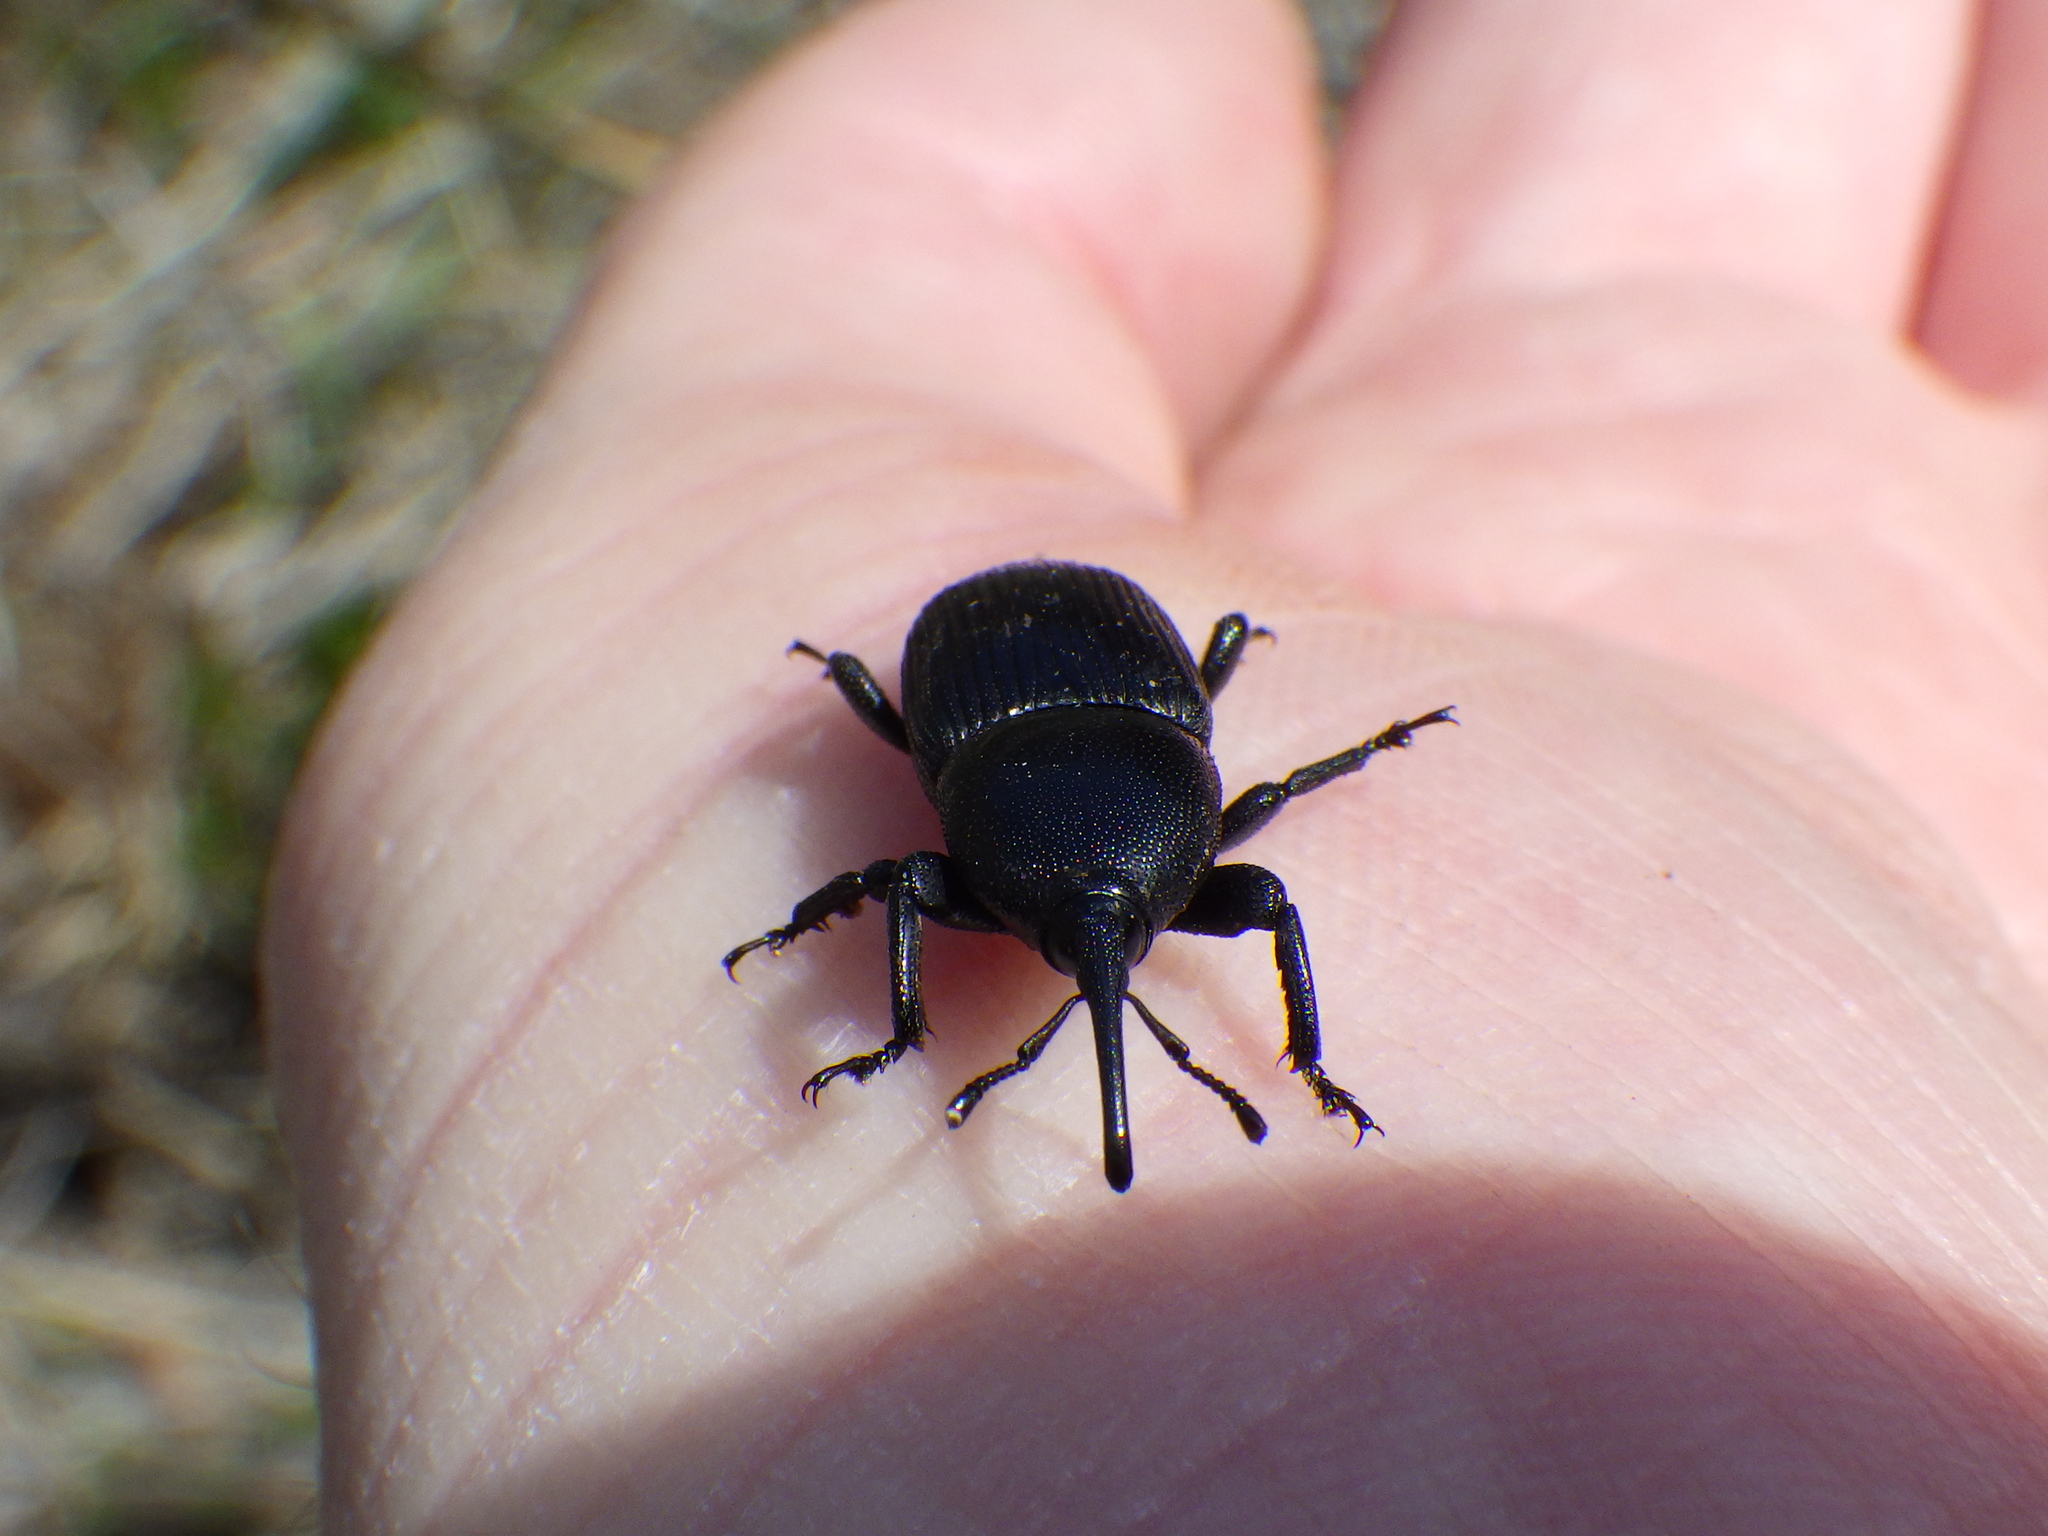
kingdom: Animalia
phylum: Arthropoda
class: Insecta
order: Coleoptera
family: Dryophthoridae
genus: Scyphophorus
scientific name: Scyphophorus yuccae
